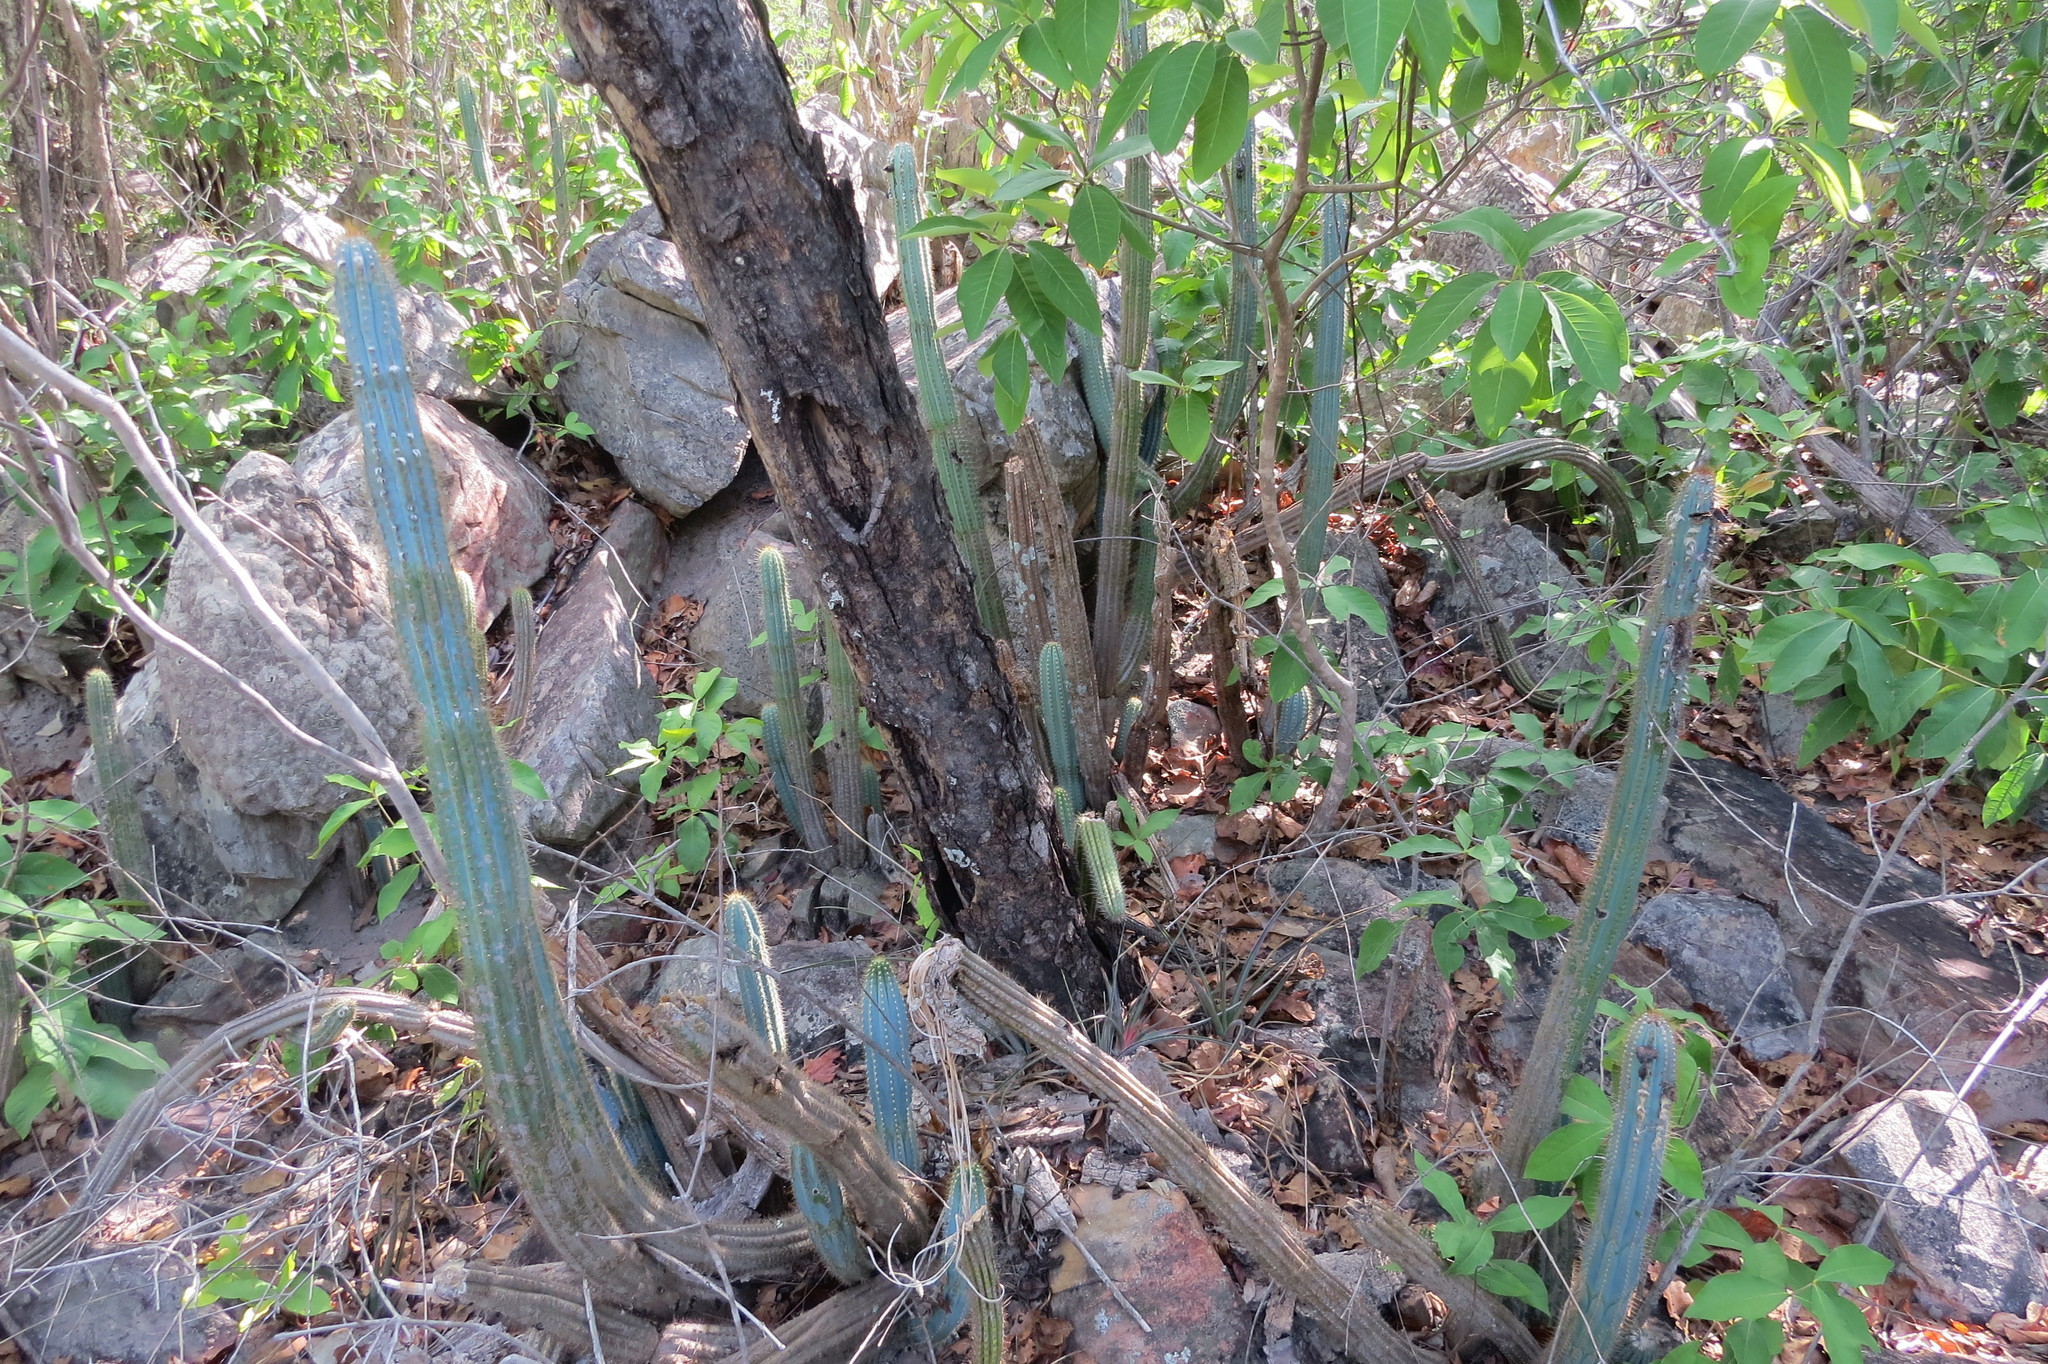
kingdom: Plantae
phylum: Tracheophyta
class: Magnoliopsida
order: Caryophyllales
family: Cactaceae
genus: Pilosocereus
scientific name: Pilosocereus machrisii
